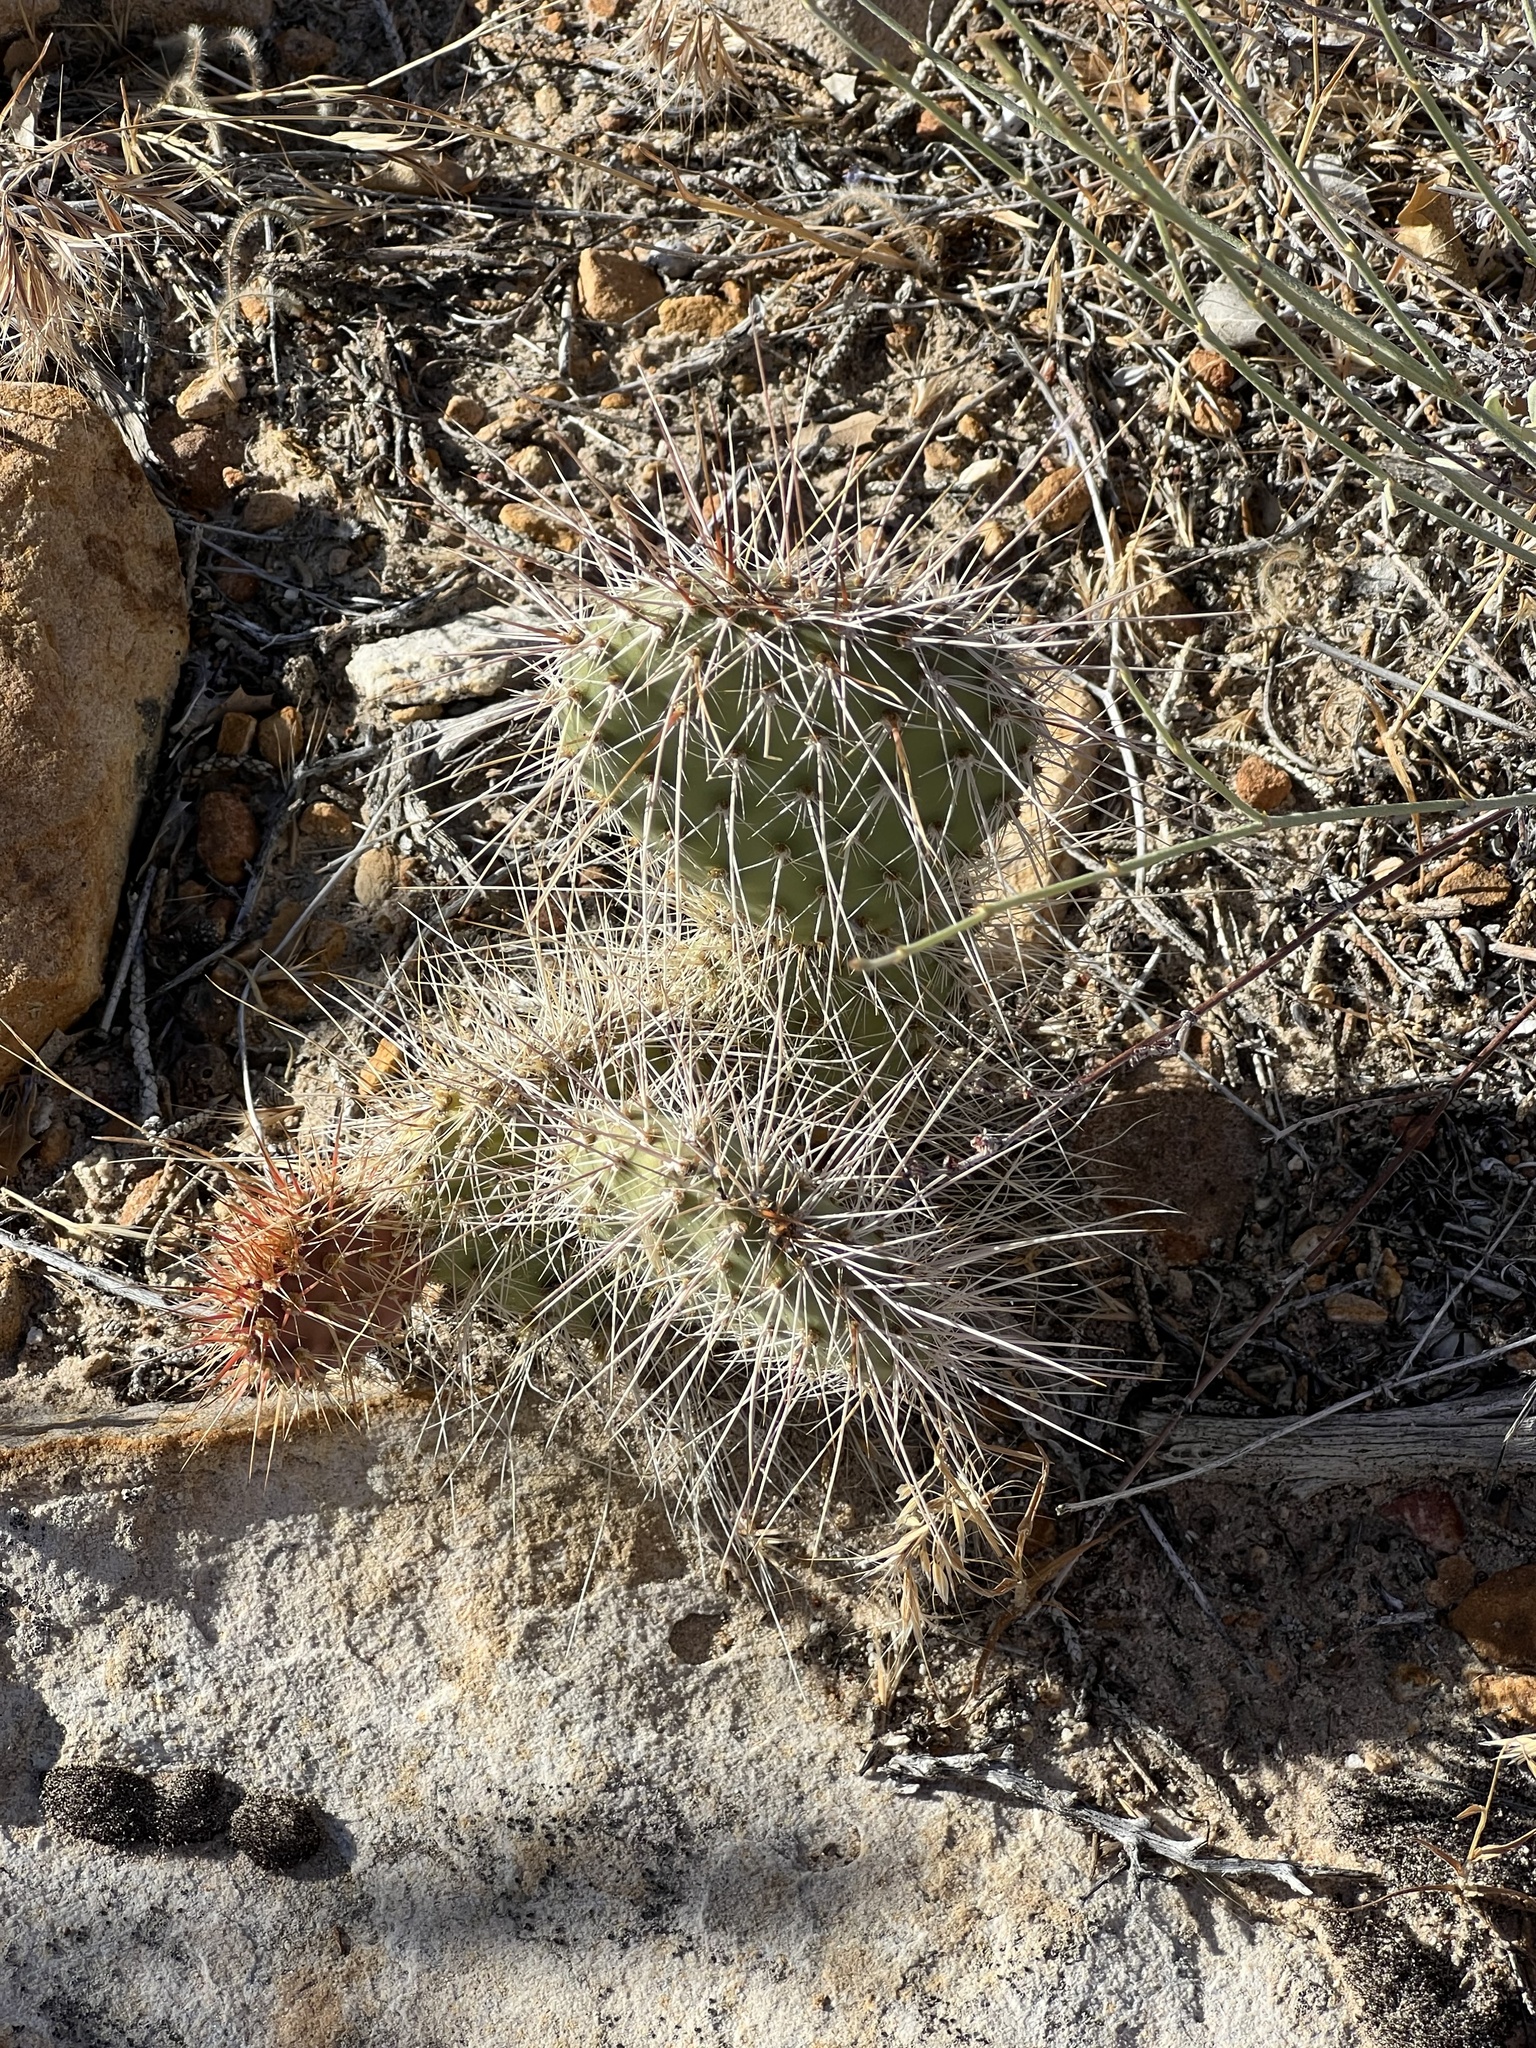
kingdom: Plantae
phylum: Tracheophyta
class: Magnoliopsida
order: Caryophyllales
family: Cactaceae
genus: Opuntia
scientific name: Opuntia polyacantha
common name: Plains prickly-pear
